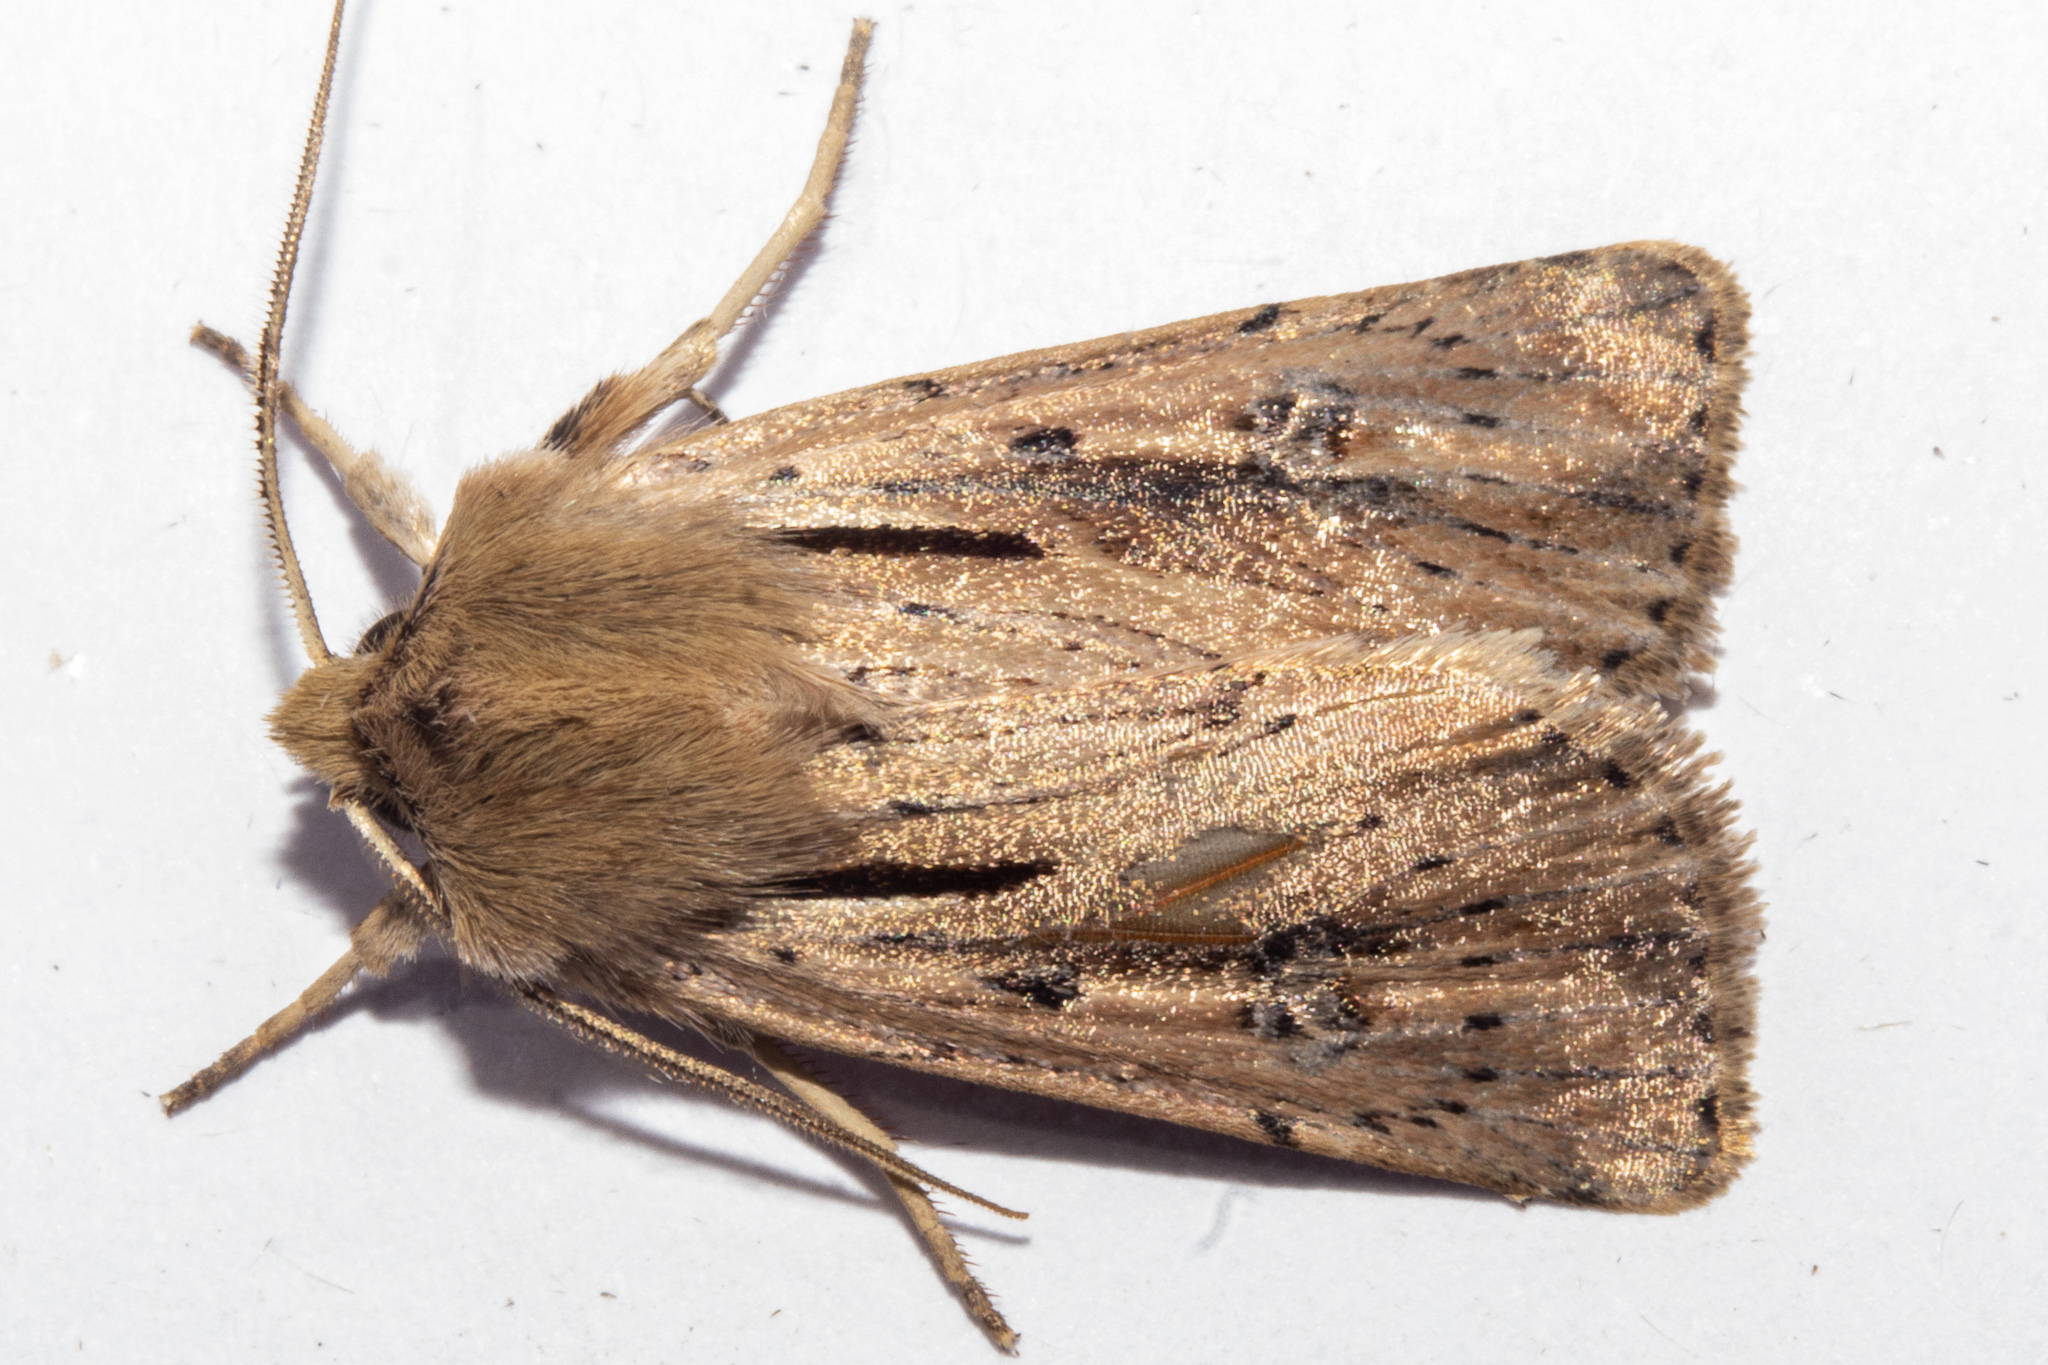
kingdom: Animalia
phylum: Arthropoda
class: Insecta
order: Lepidoptera
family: Noctuidae
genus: Ichneutica
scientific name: Ichneutica propria
